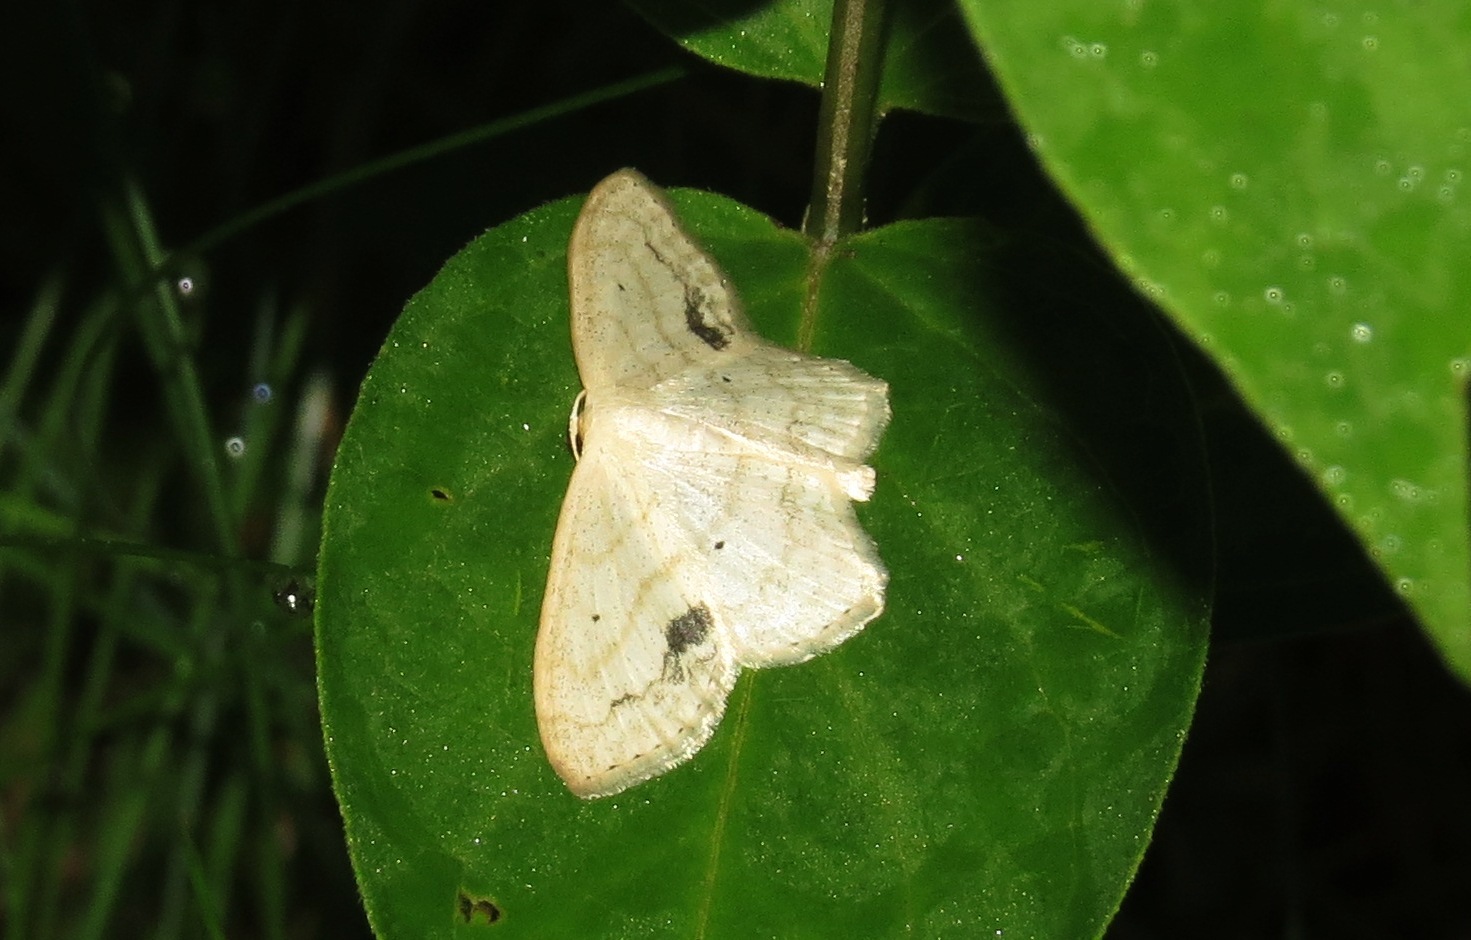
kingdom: Animalia
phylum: Arthropoda
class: Insecta
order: Lepidoptera
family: Geometridae
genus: Scopula
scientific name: Scopula limboundata
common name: Large lace border
